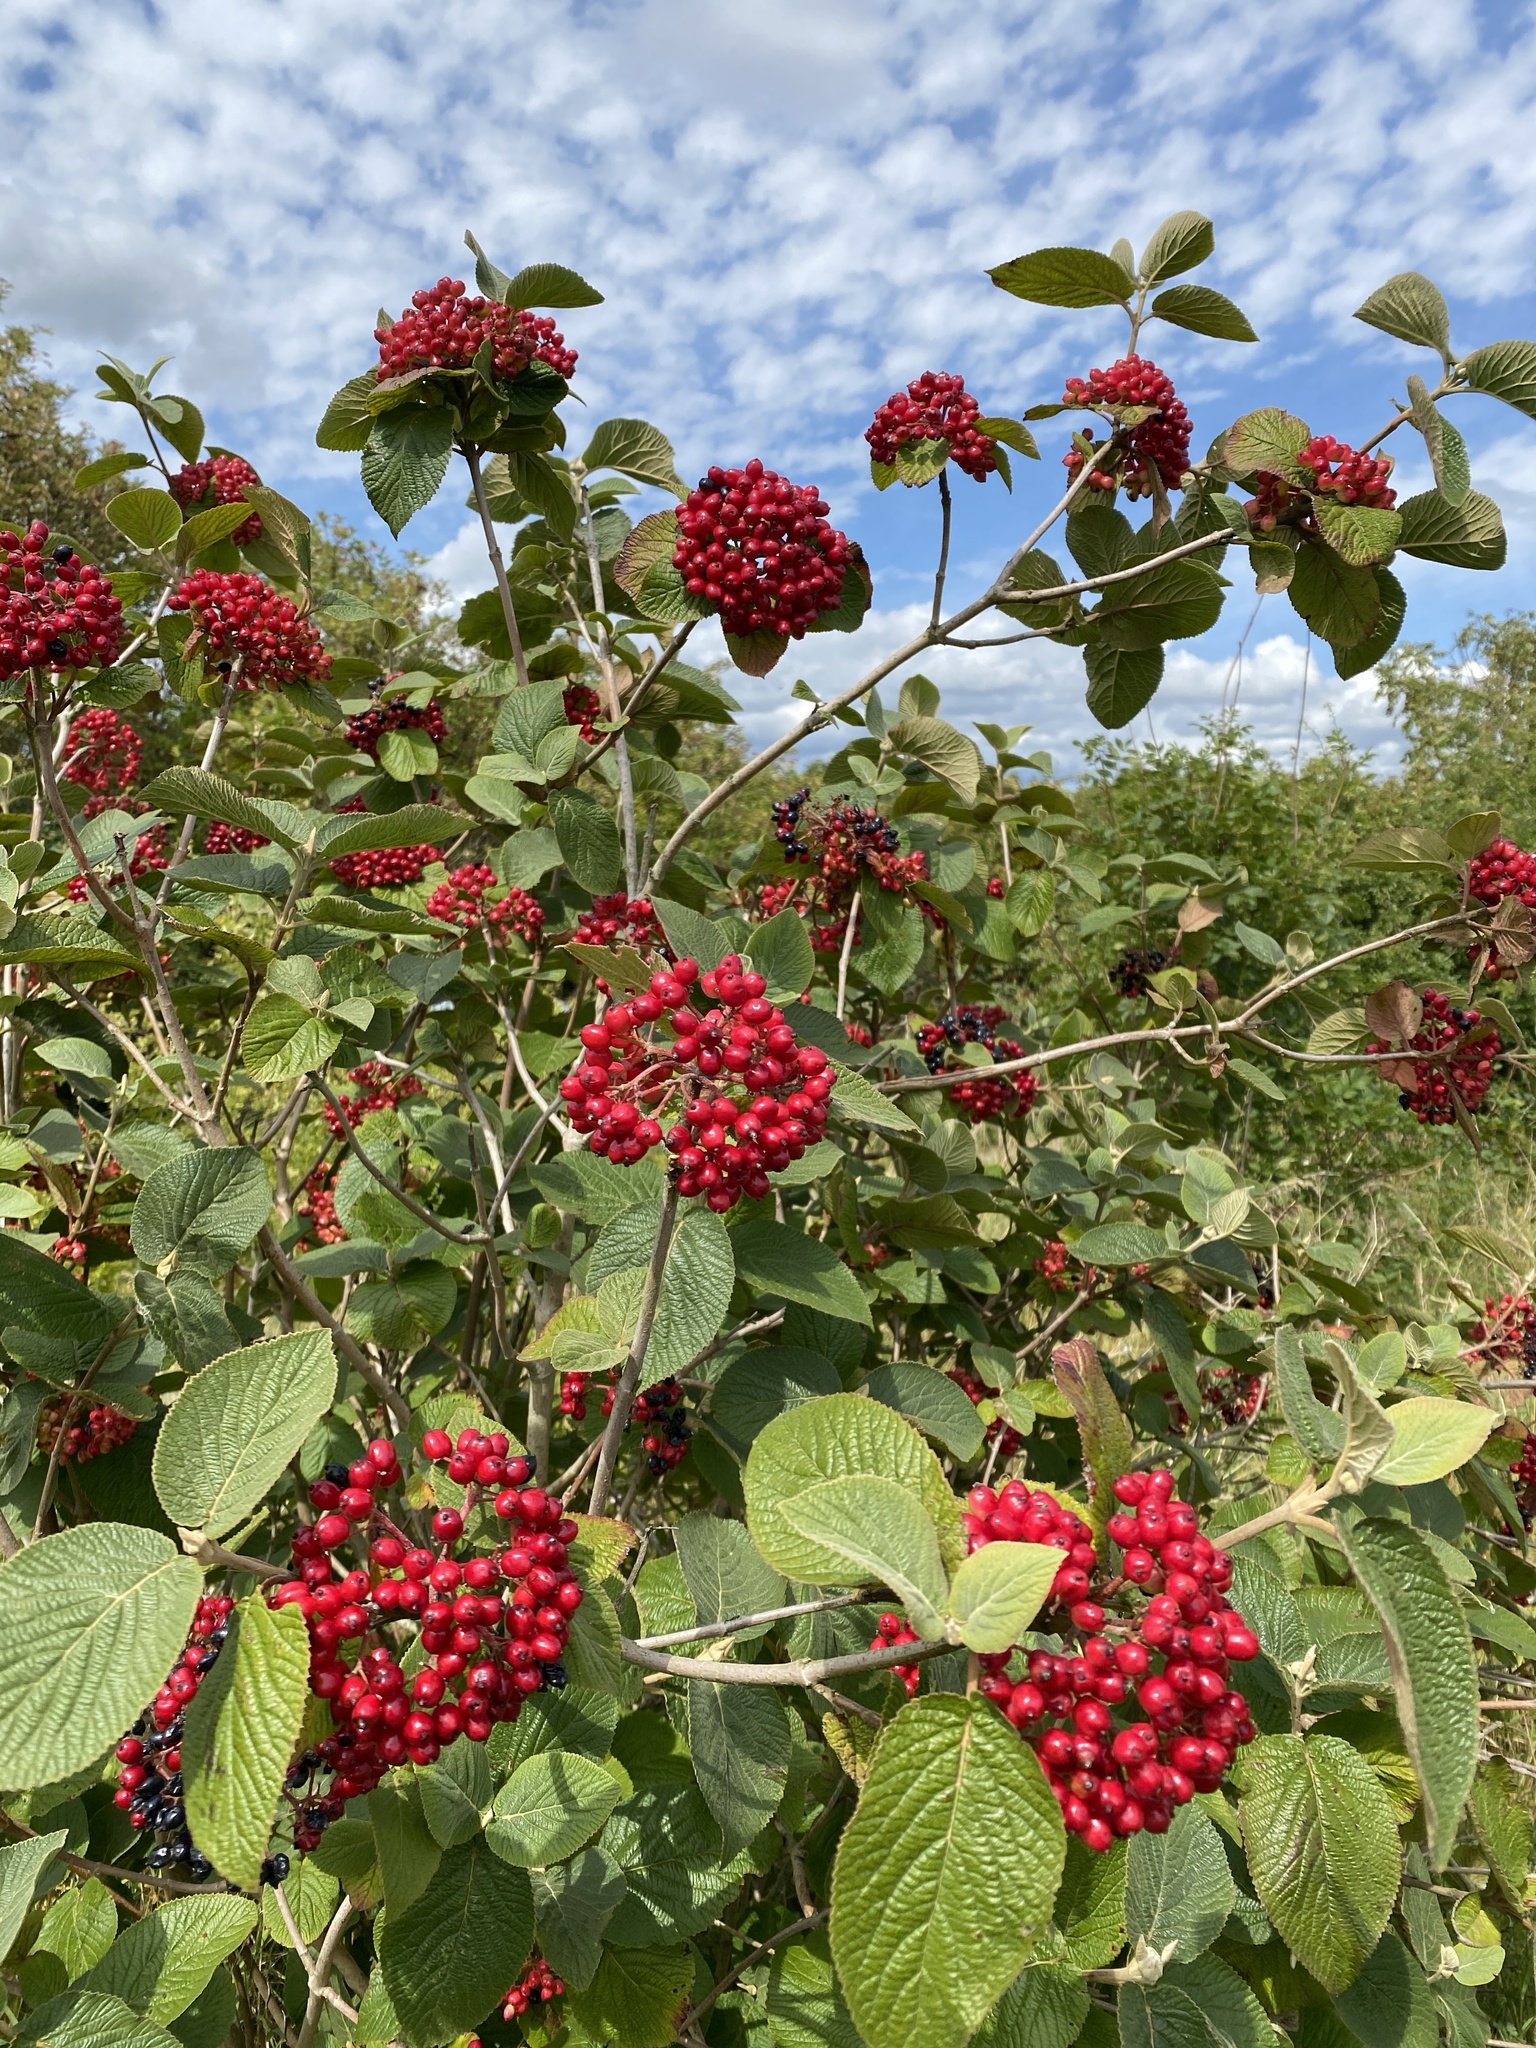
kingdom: Plantae
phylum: Tracheophyta
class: Magnoliopsida
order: Dipsacales
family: Viburnaceae
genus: Viburnum
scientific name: Viburnum lantana
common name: Wayfaring tree
